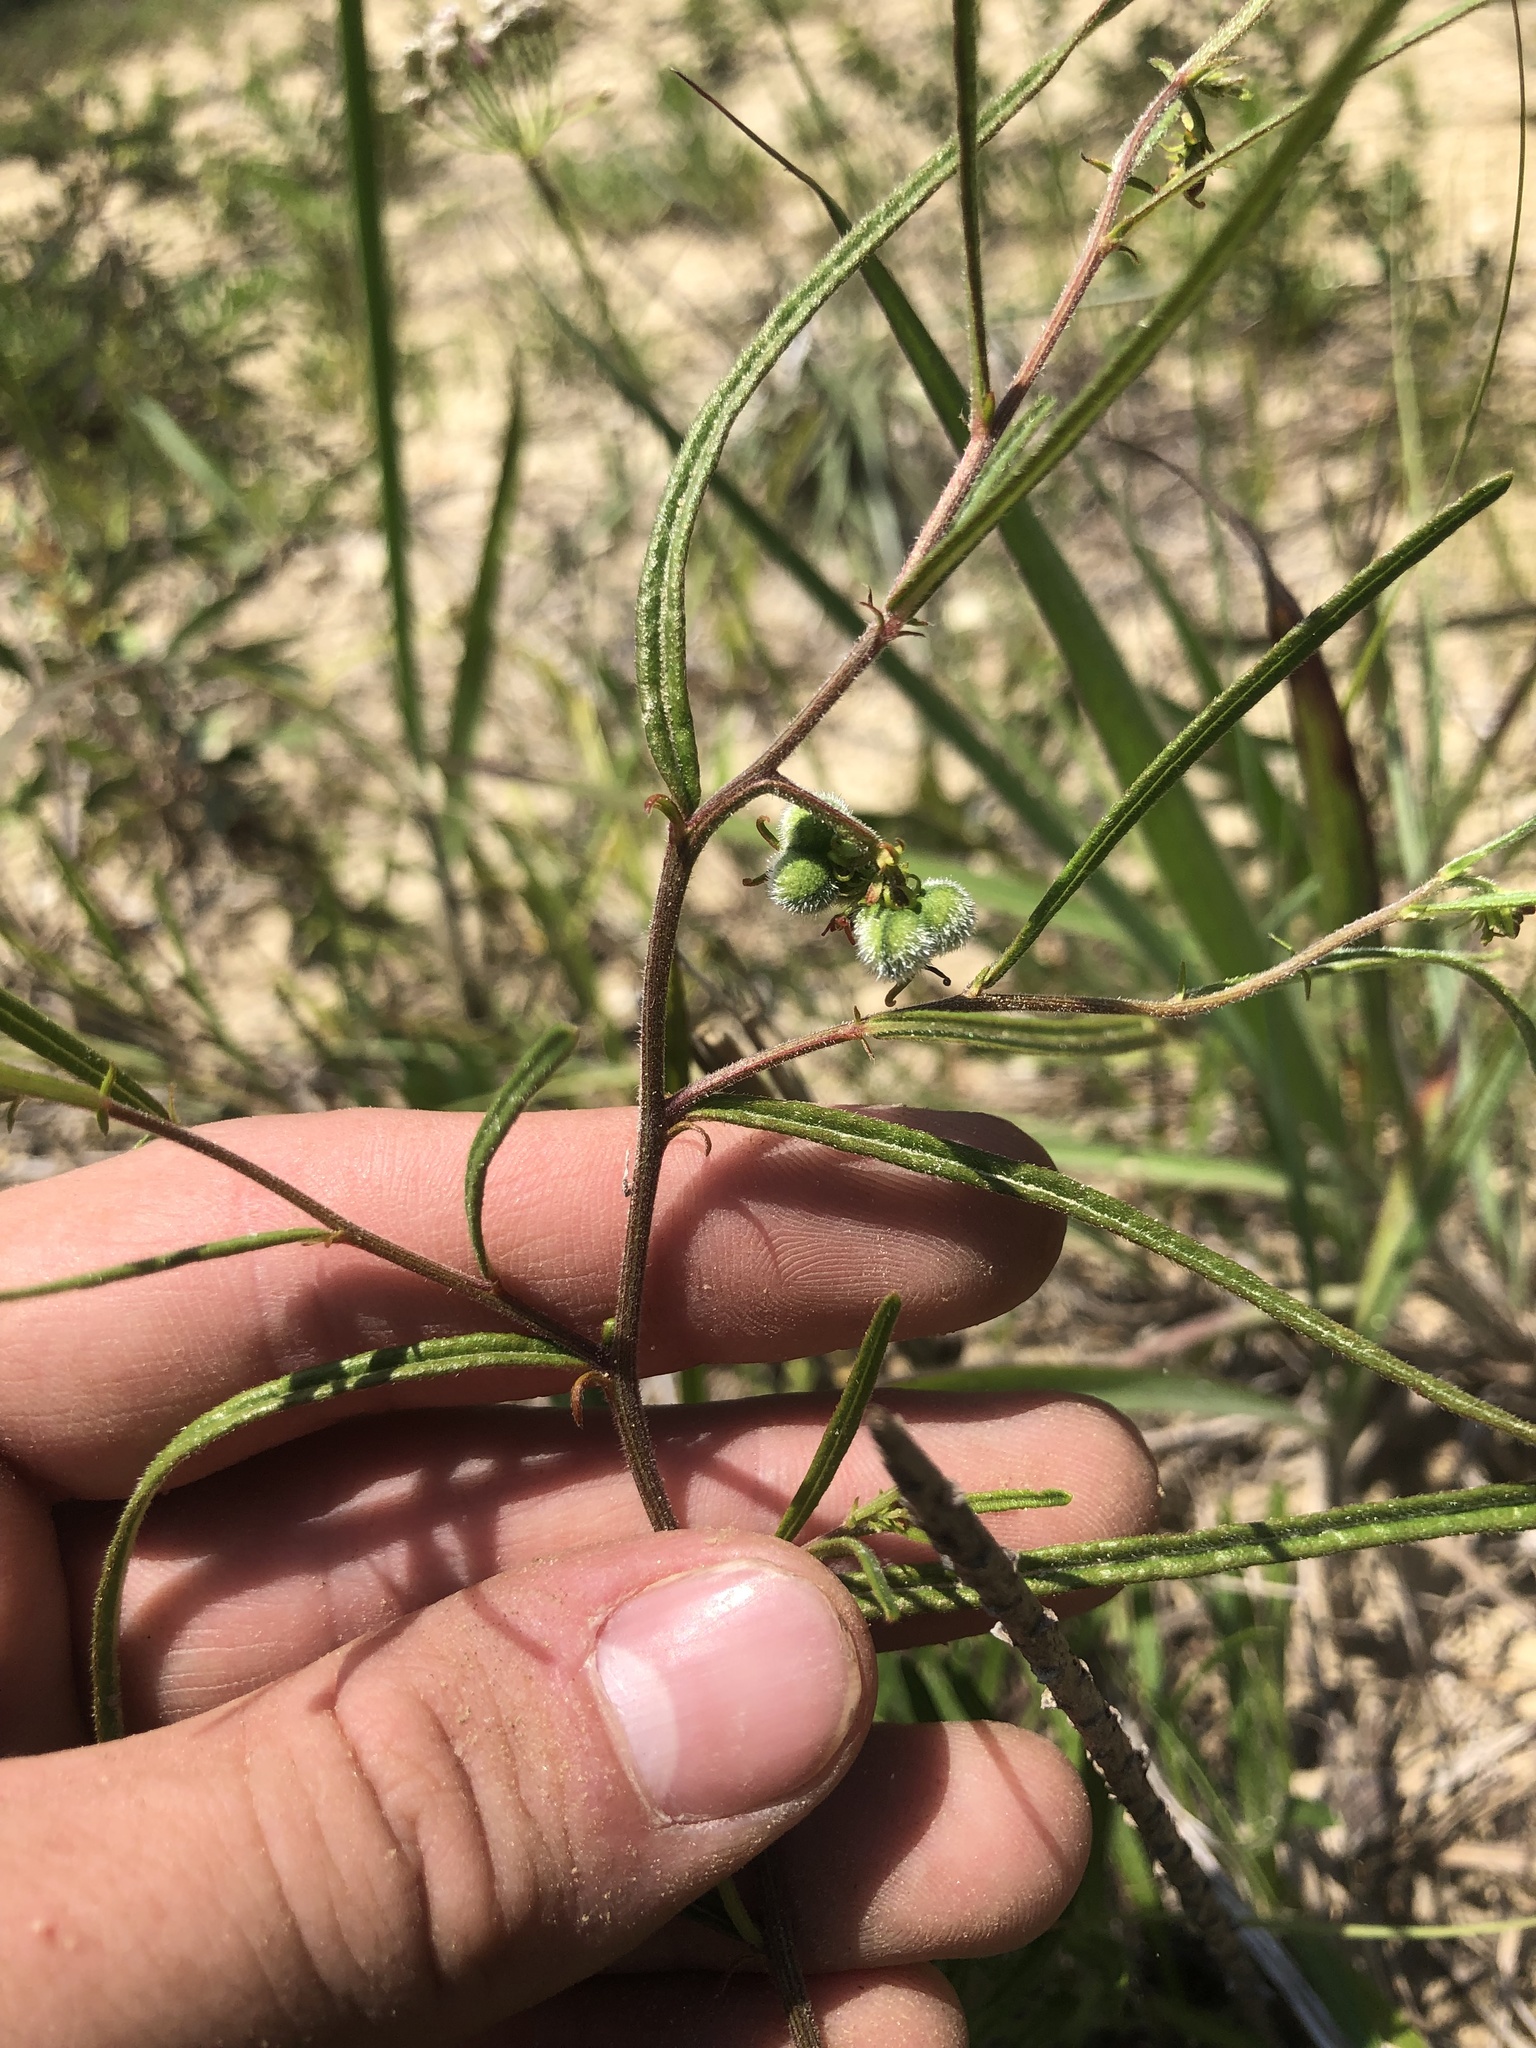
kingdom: Plantae
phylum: Tracheophyta
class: Magnoliopsida
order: Malpighiales
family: Euphorbiaceae
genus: Tragia
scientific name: Tragia urens
